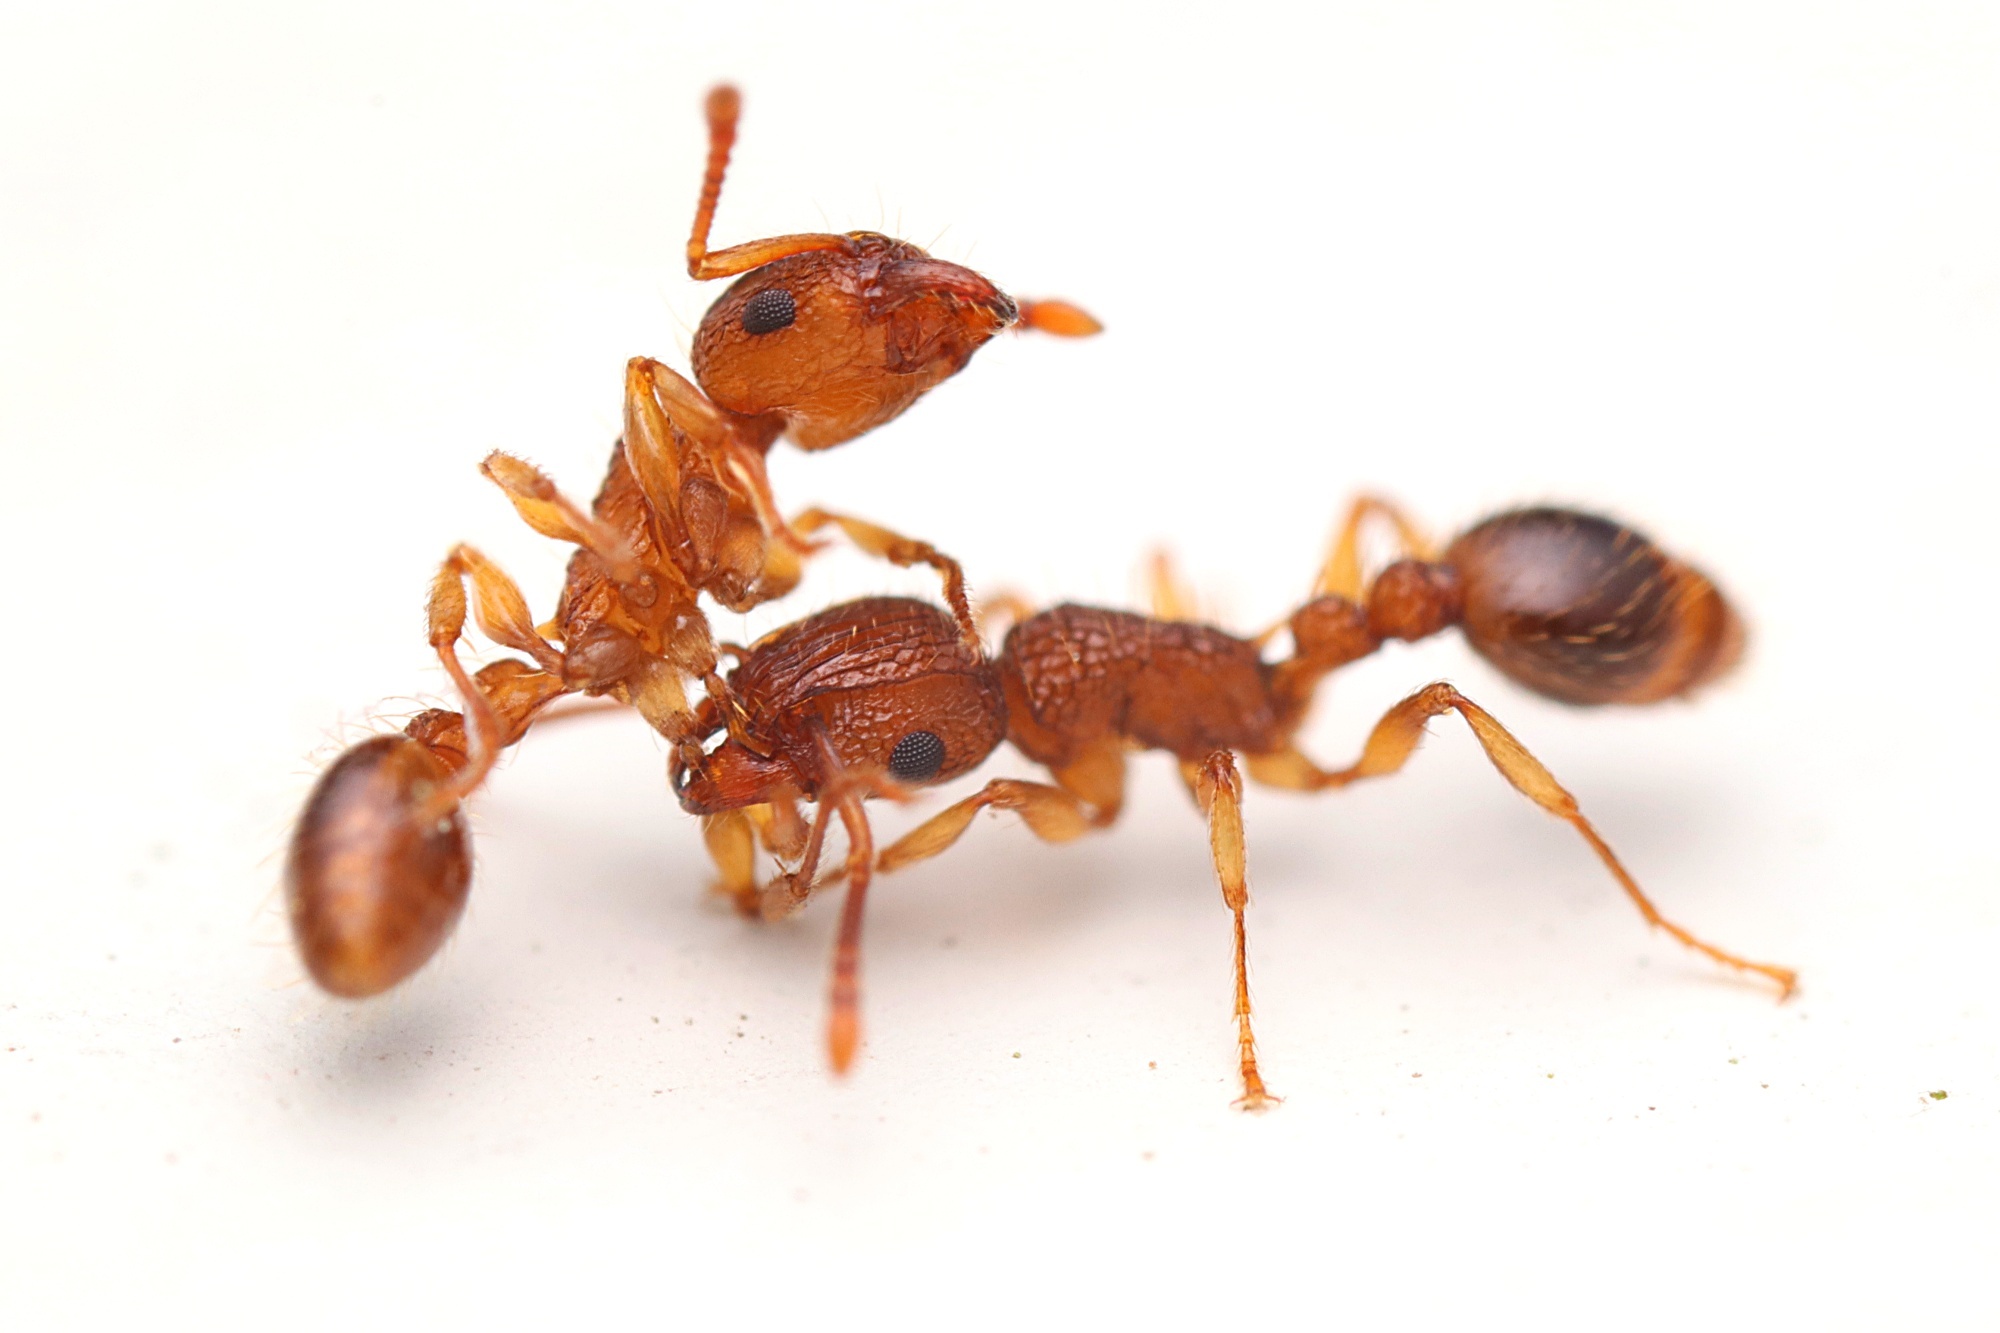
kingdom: Animalia
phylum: Arthropoda
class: Insecta
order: Hymenoptera
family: Formicidae
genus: Tetramorium
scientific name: Tetramorium bicarinatum
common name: Guinea ant
